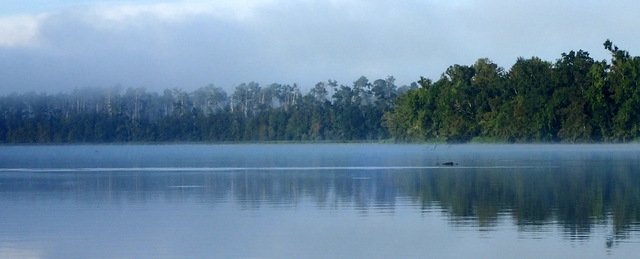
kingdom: Animalia
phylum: Chordata
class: Crocodylia
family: Alligatoridae
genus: Alligator
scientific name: Alligator mississippiensis
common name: American alligator
